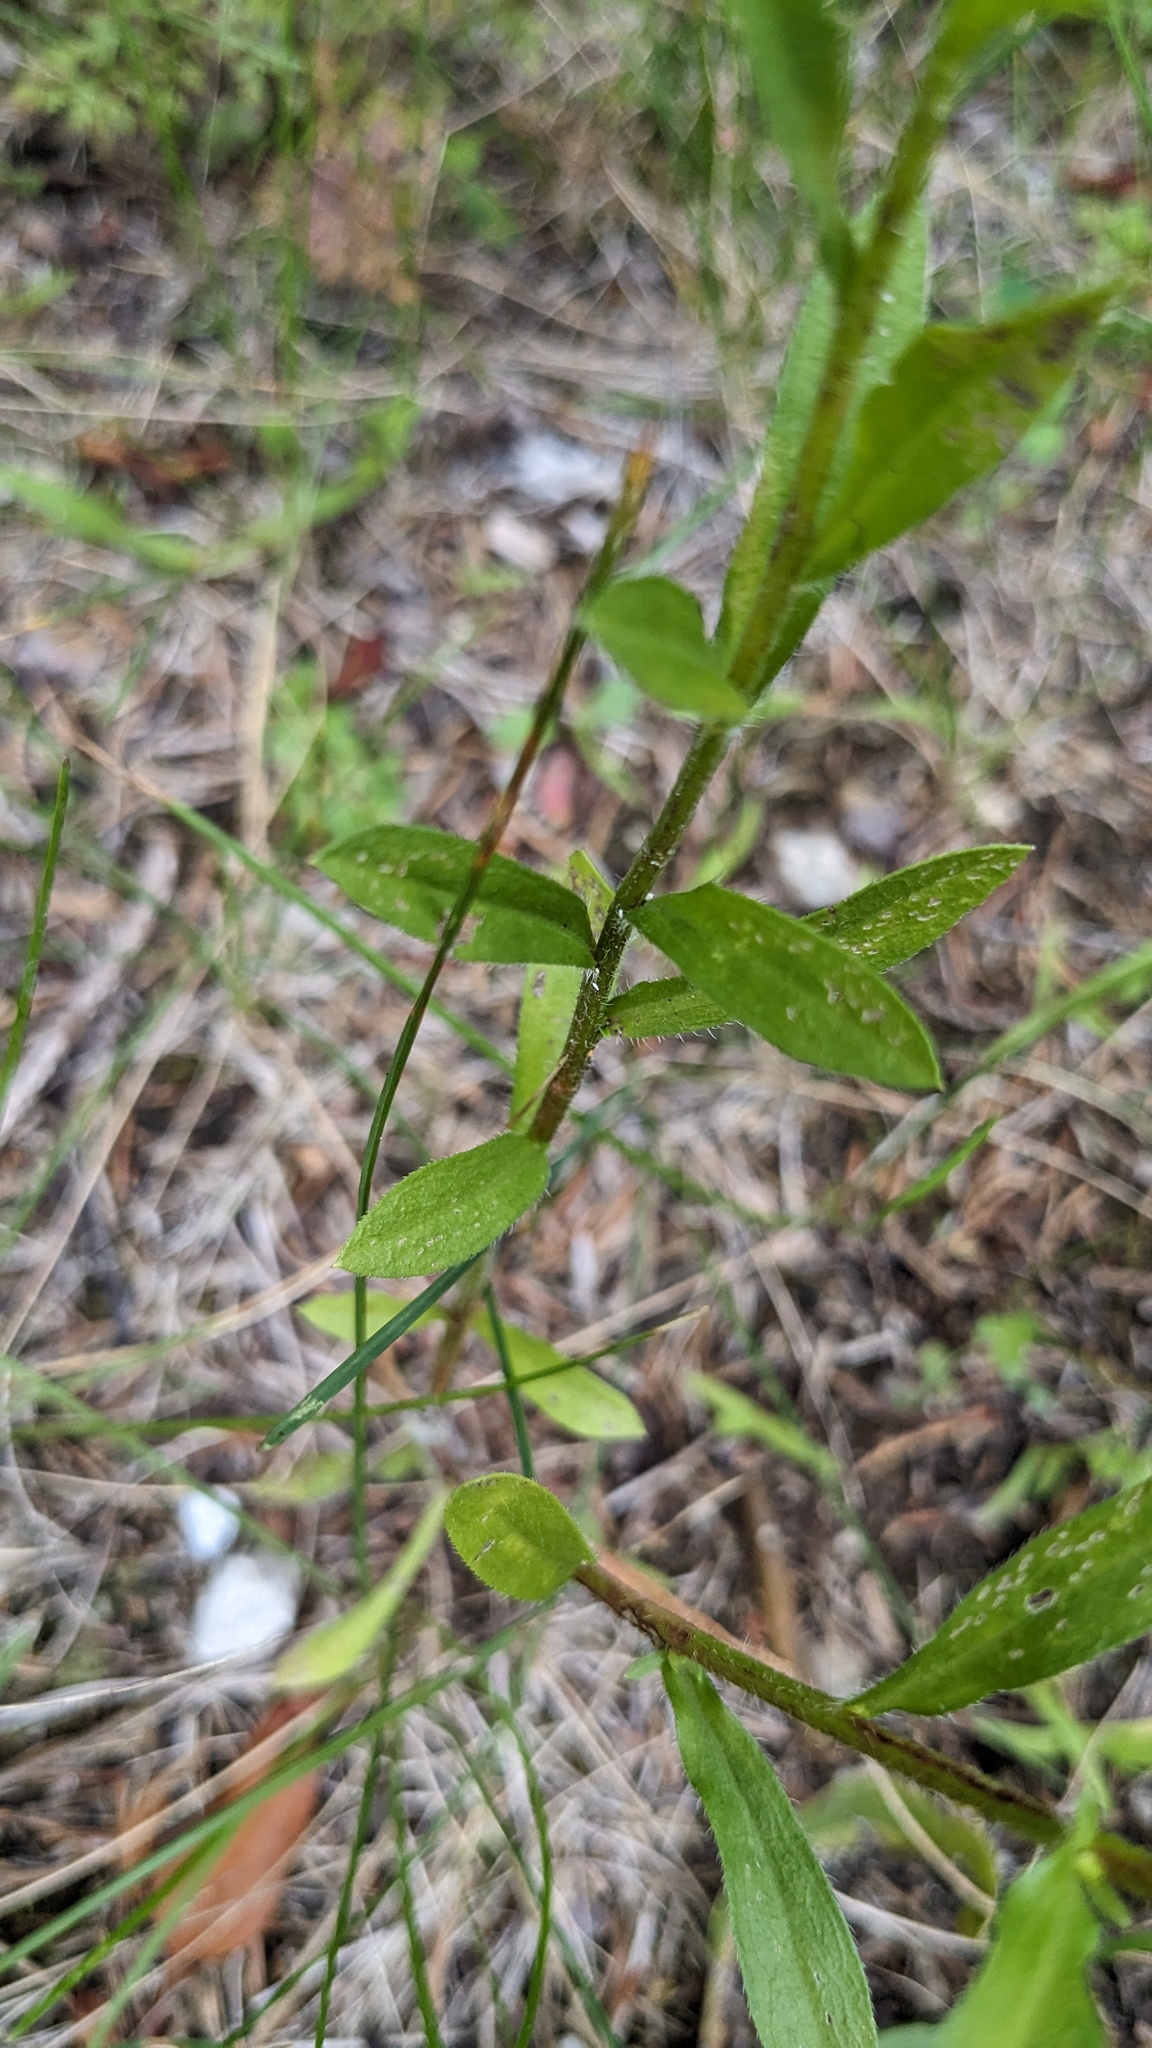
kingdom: Plantae
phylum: Tracheophyta
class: Magnoliopsida
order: Asterales
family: Asteraceae
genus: Erigeron
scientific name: Erigeron strigosus
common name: Common eastern fleabane
